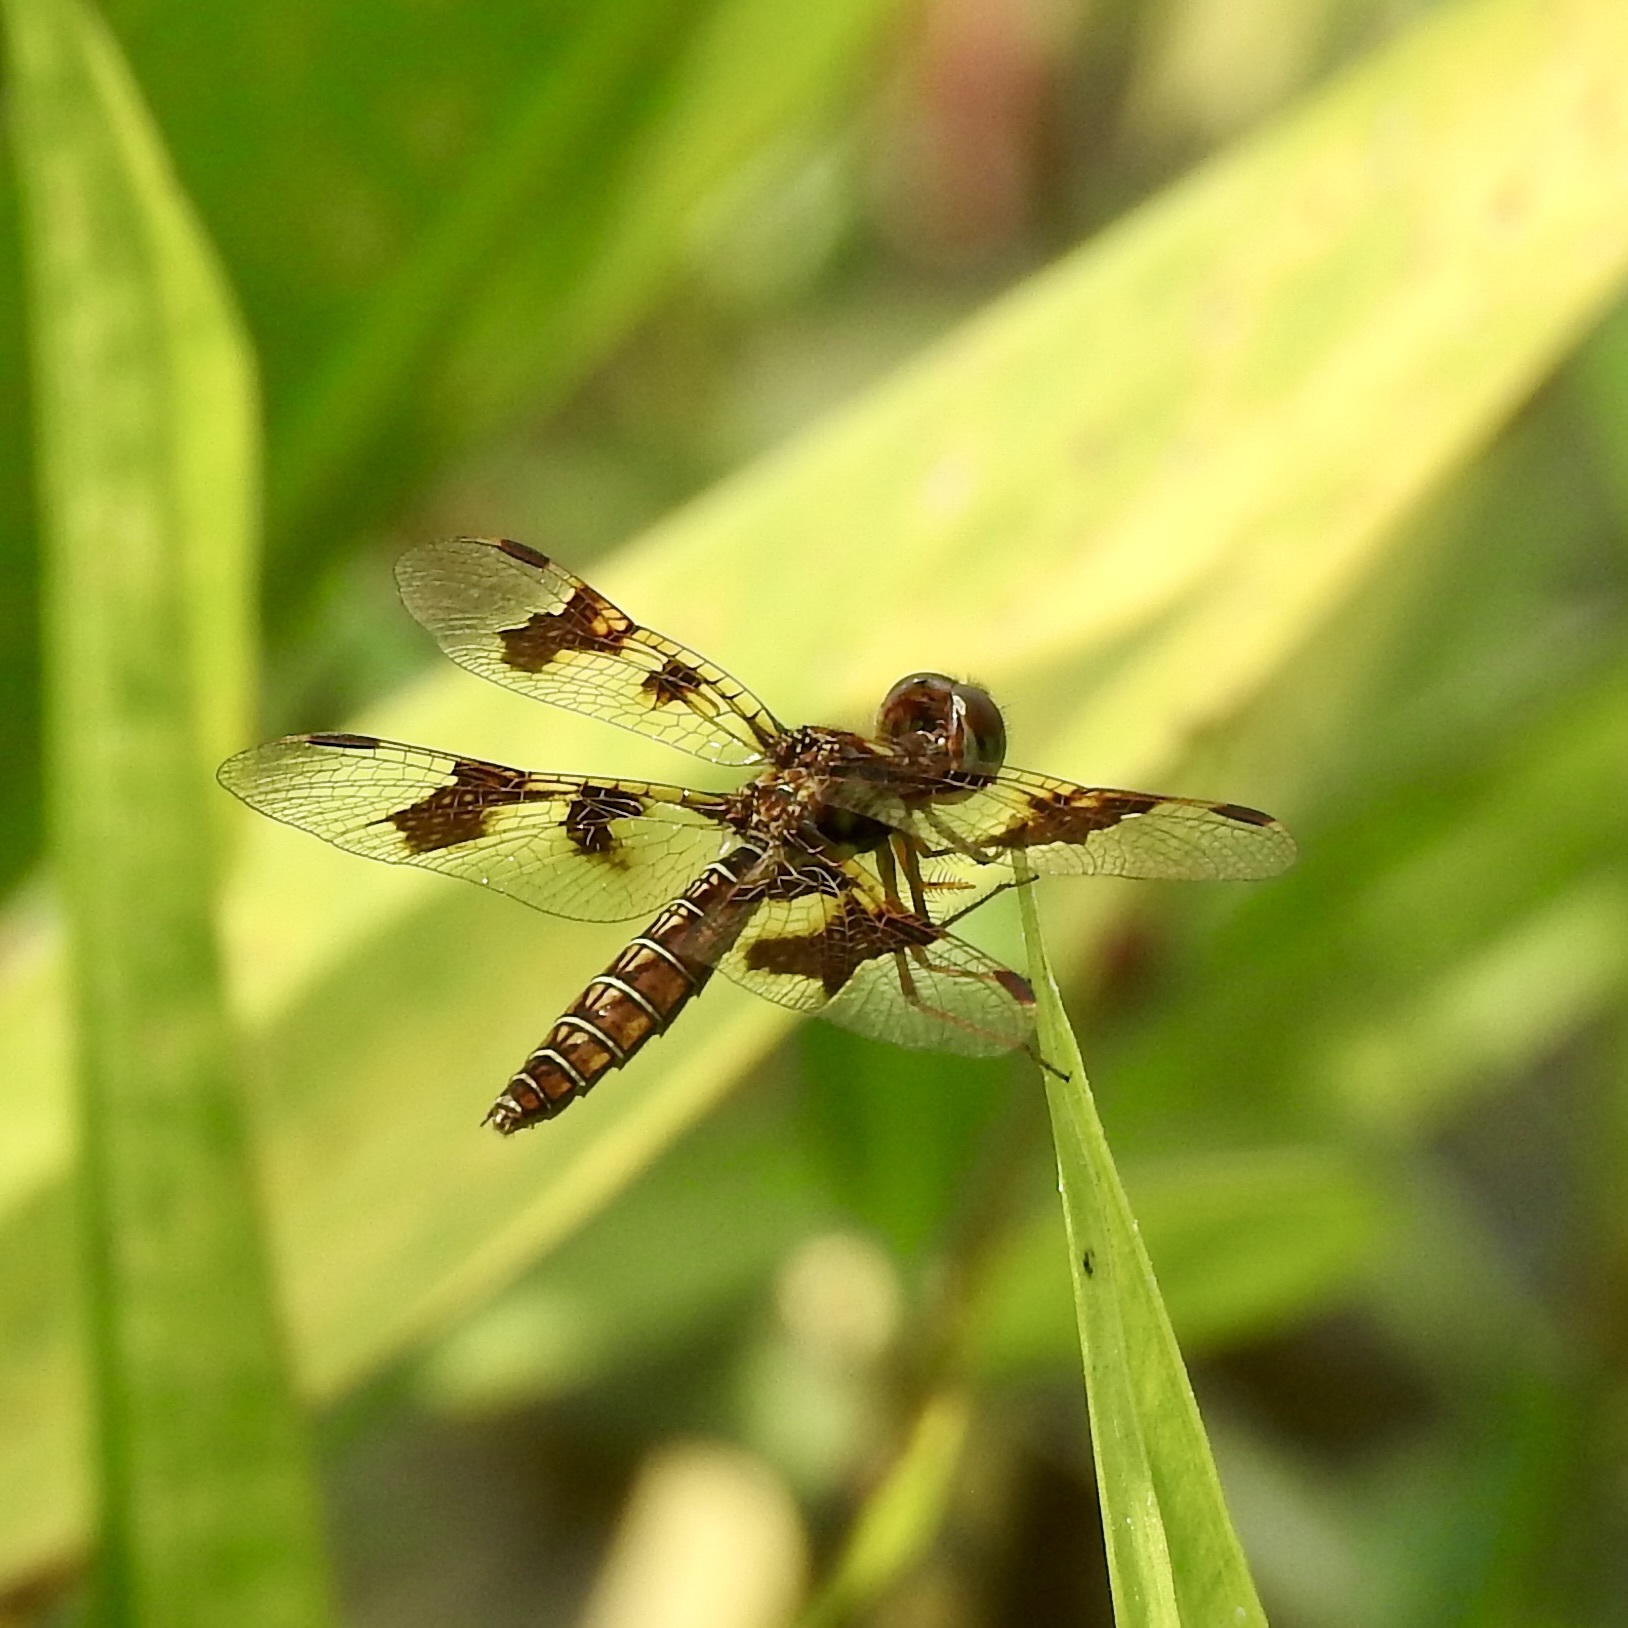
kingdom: Animalia
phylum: Arthropoda
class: Insecta
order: Odonata
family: Libellulidae
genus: Perithemis
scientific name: Perithemis tenera
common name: Eastern amberwing
